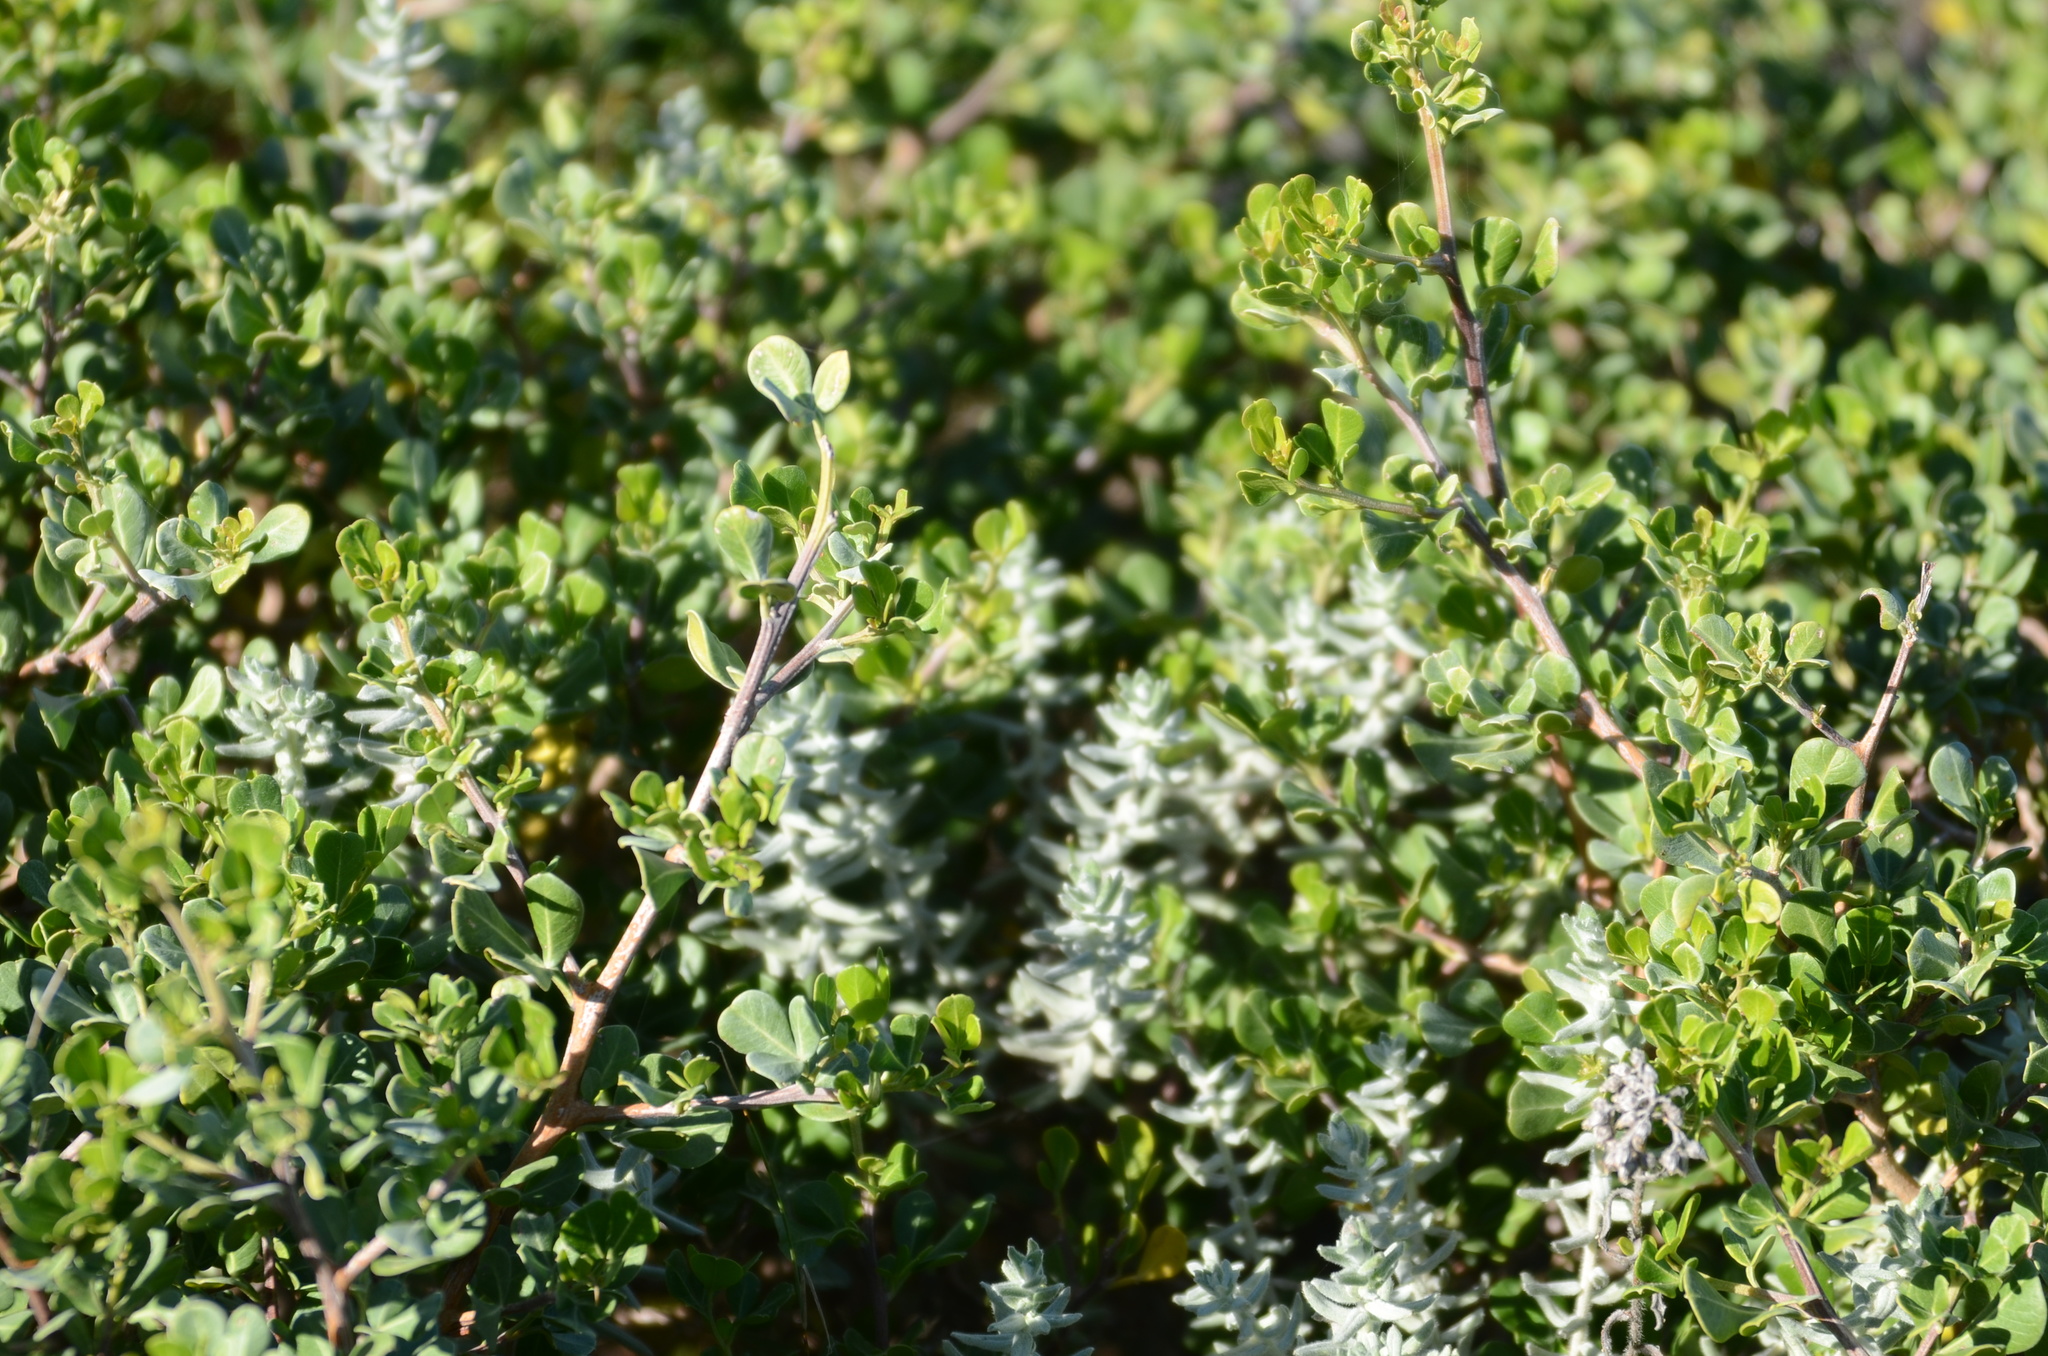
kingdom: Plantae
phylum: Tracheophyta
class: Magnoliopsida
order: Sapindales
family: Anacardiaceae
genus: Searsia
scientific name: Searsia glauca
